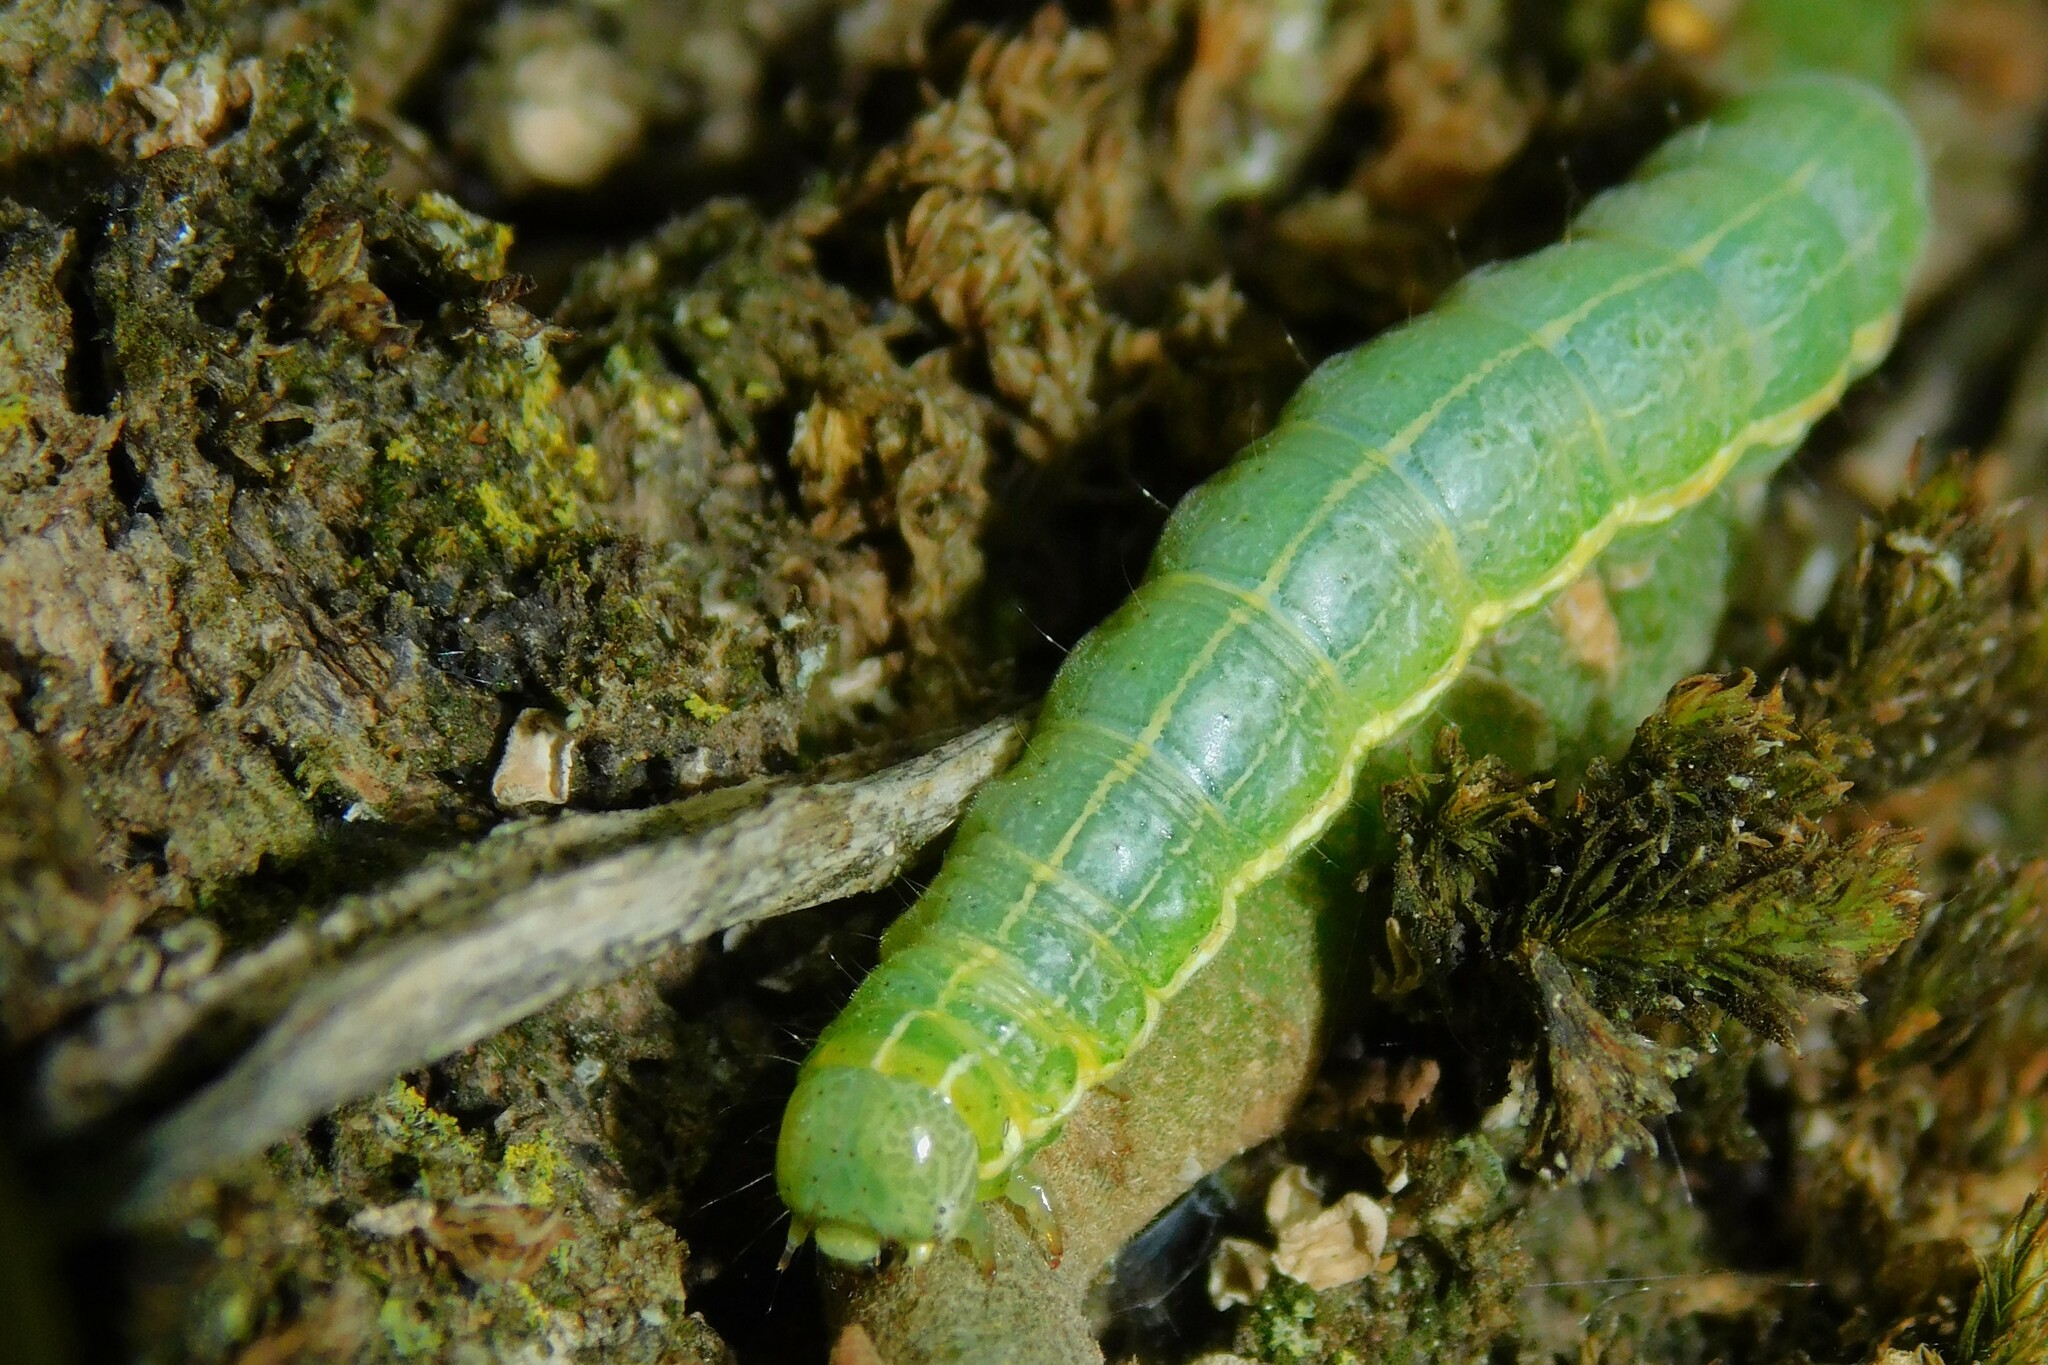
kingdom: Animalia
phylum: Arthropoda
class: Insecta
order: Lepidoptera
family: Noctuidae
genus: Orthosia
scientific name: Orthosia cruda
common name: Small quaker
